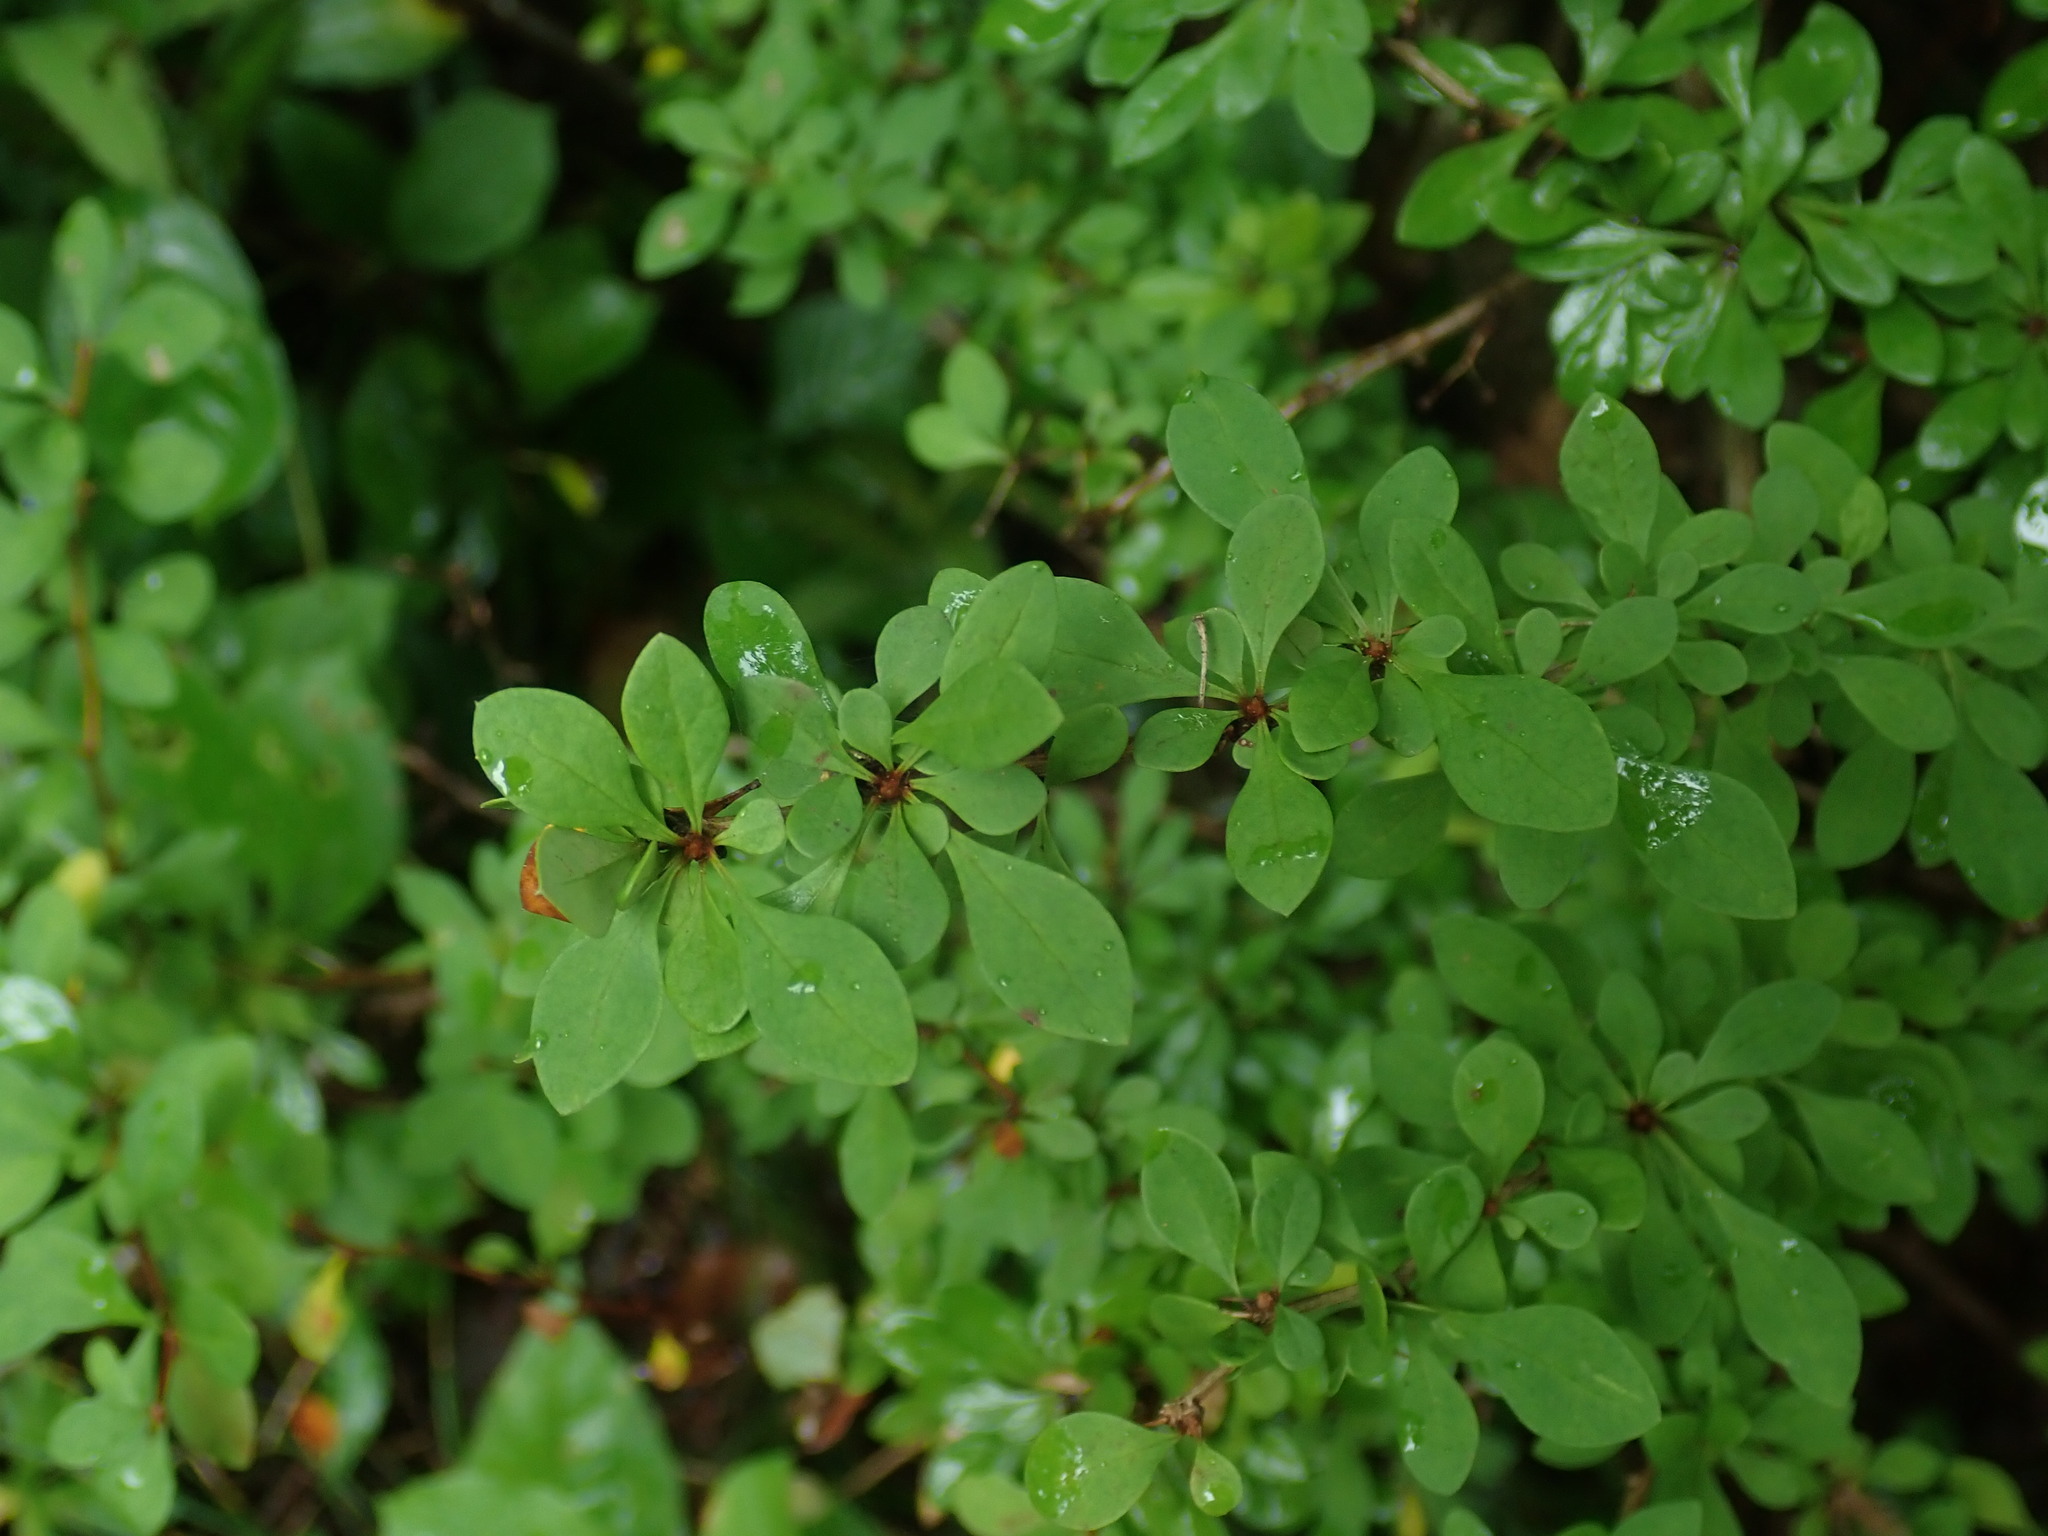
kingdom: Plantae
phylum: Tracheophyta
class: Magnoliopsida
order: Ranunculales
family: Berberidaceae
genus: Berberis
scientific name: Berberis thunbergii
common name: Japanese barberry
